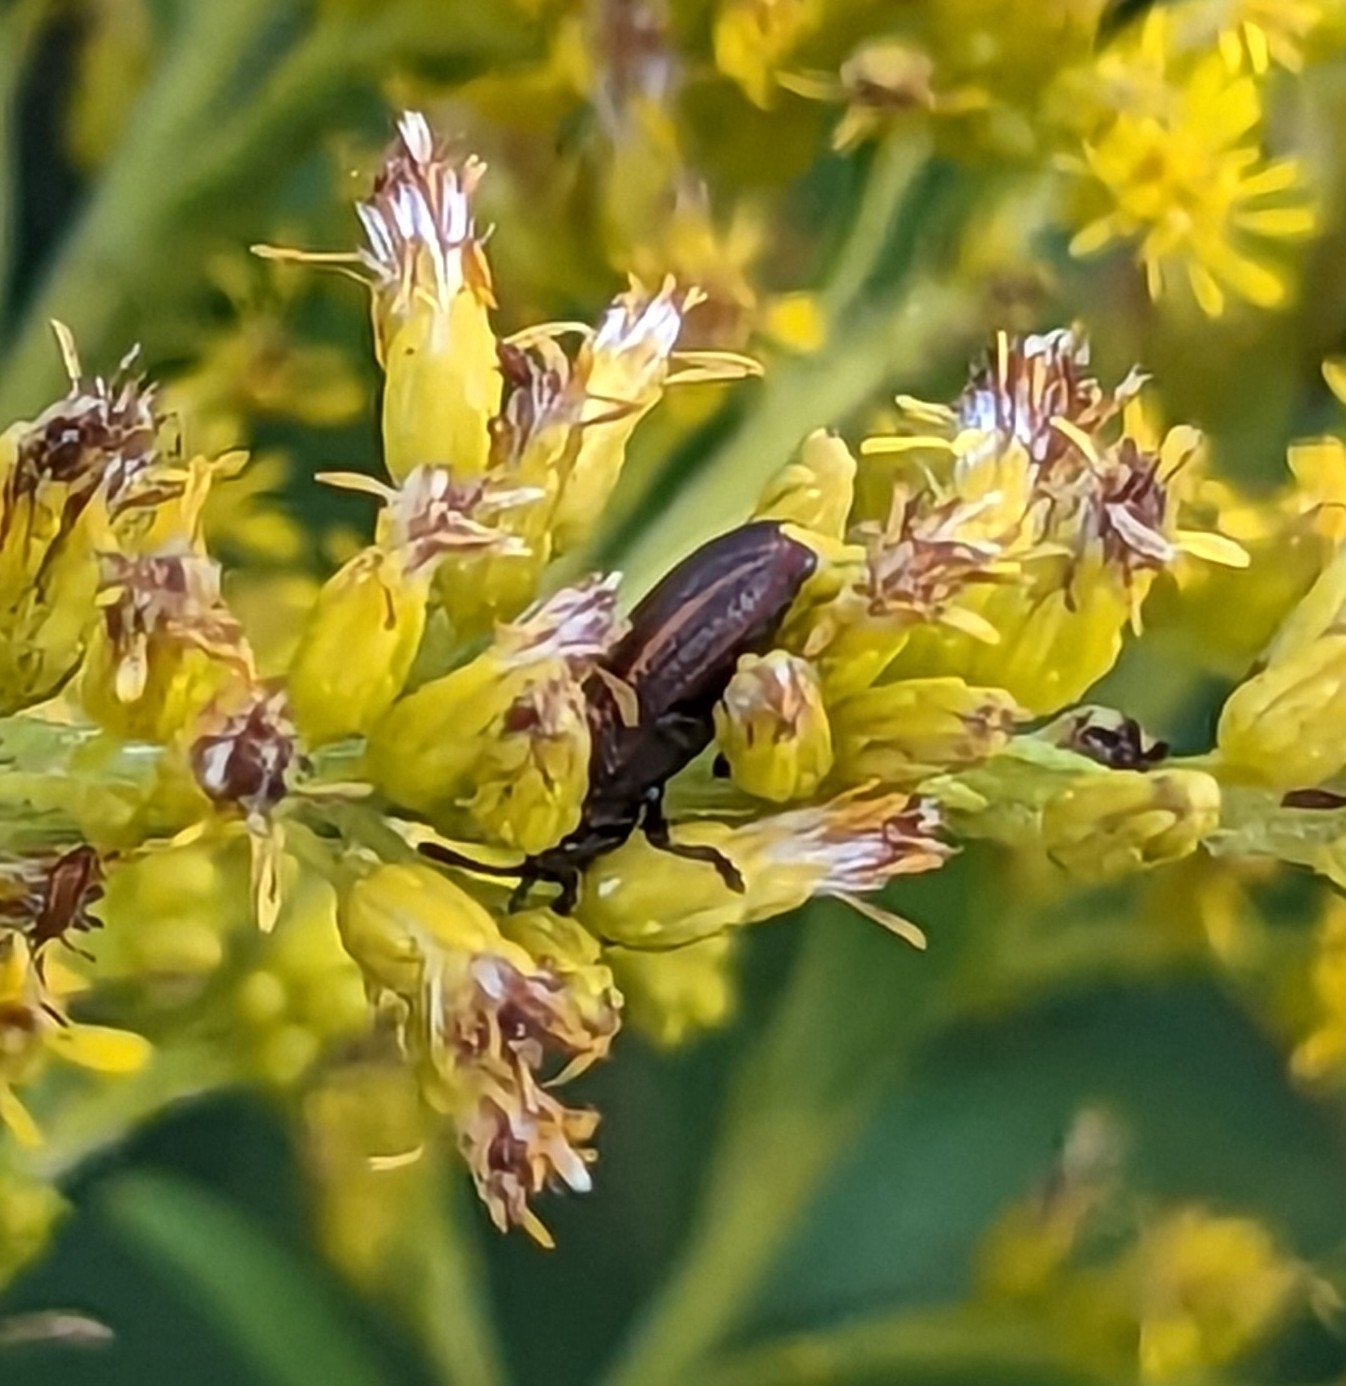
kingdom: Animalia
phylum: Arthropoda
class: Insecta
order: Coleoptera
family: Chrysomelidae
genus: Microrhopala
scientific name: Microrhopala vittata
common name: Goldenrod leaf miner beetle
